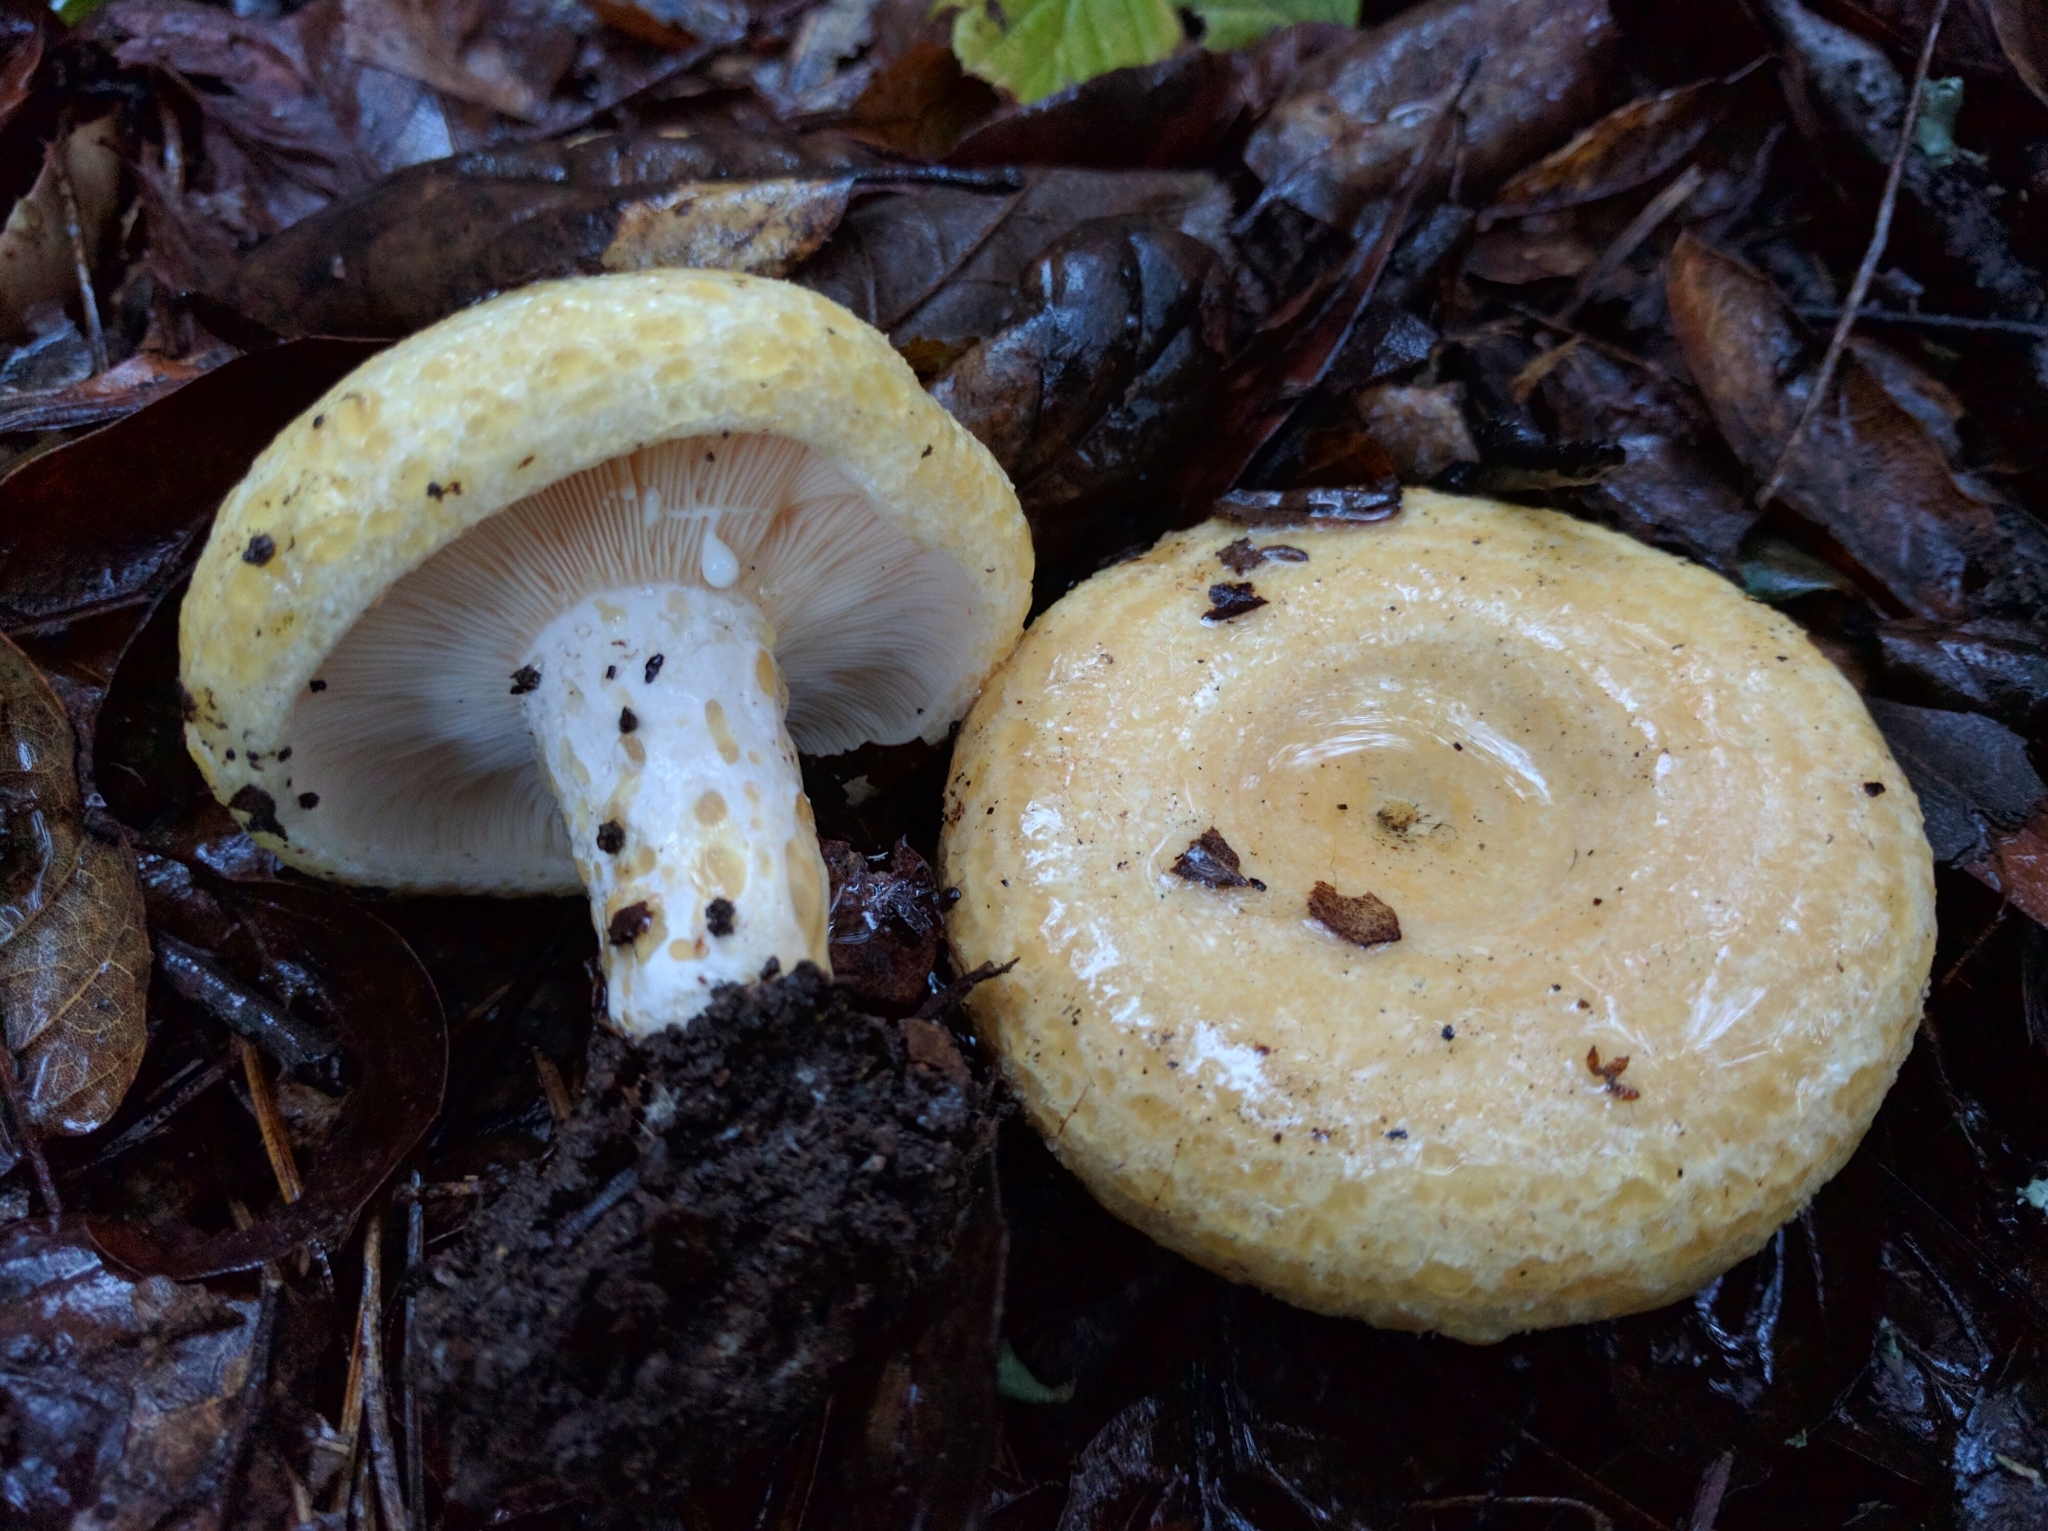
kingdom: Fungi
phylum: Basidiomycota
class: Agaricomycetes
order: Russulales
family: Russulaceae
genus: Lactarius
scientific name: Lactarius alnicola
